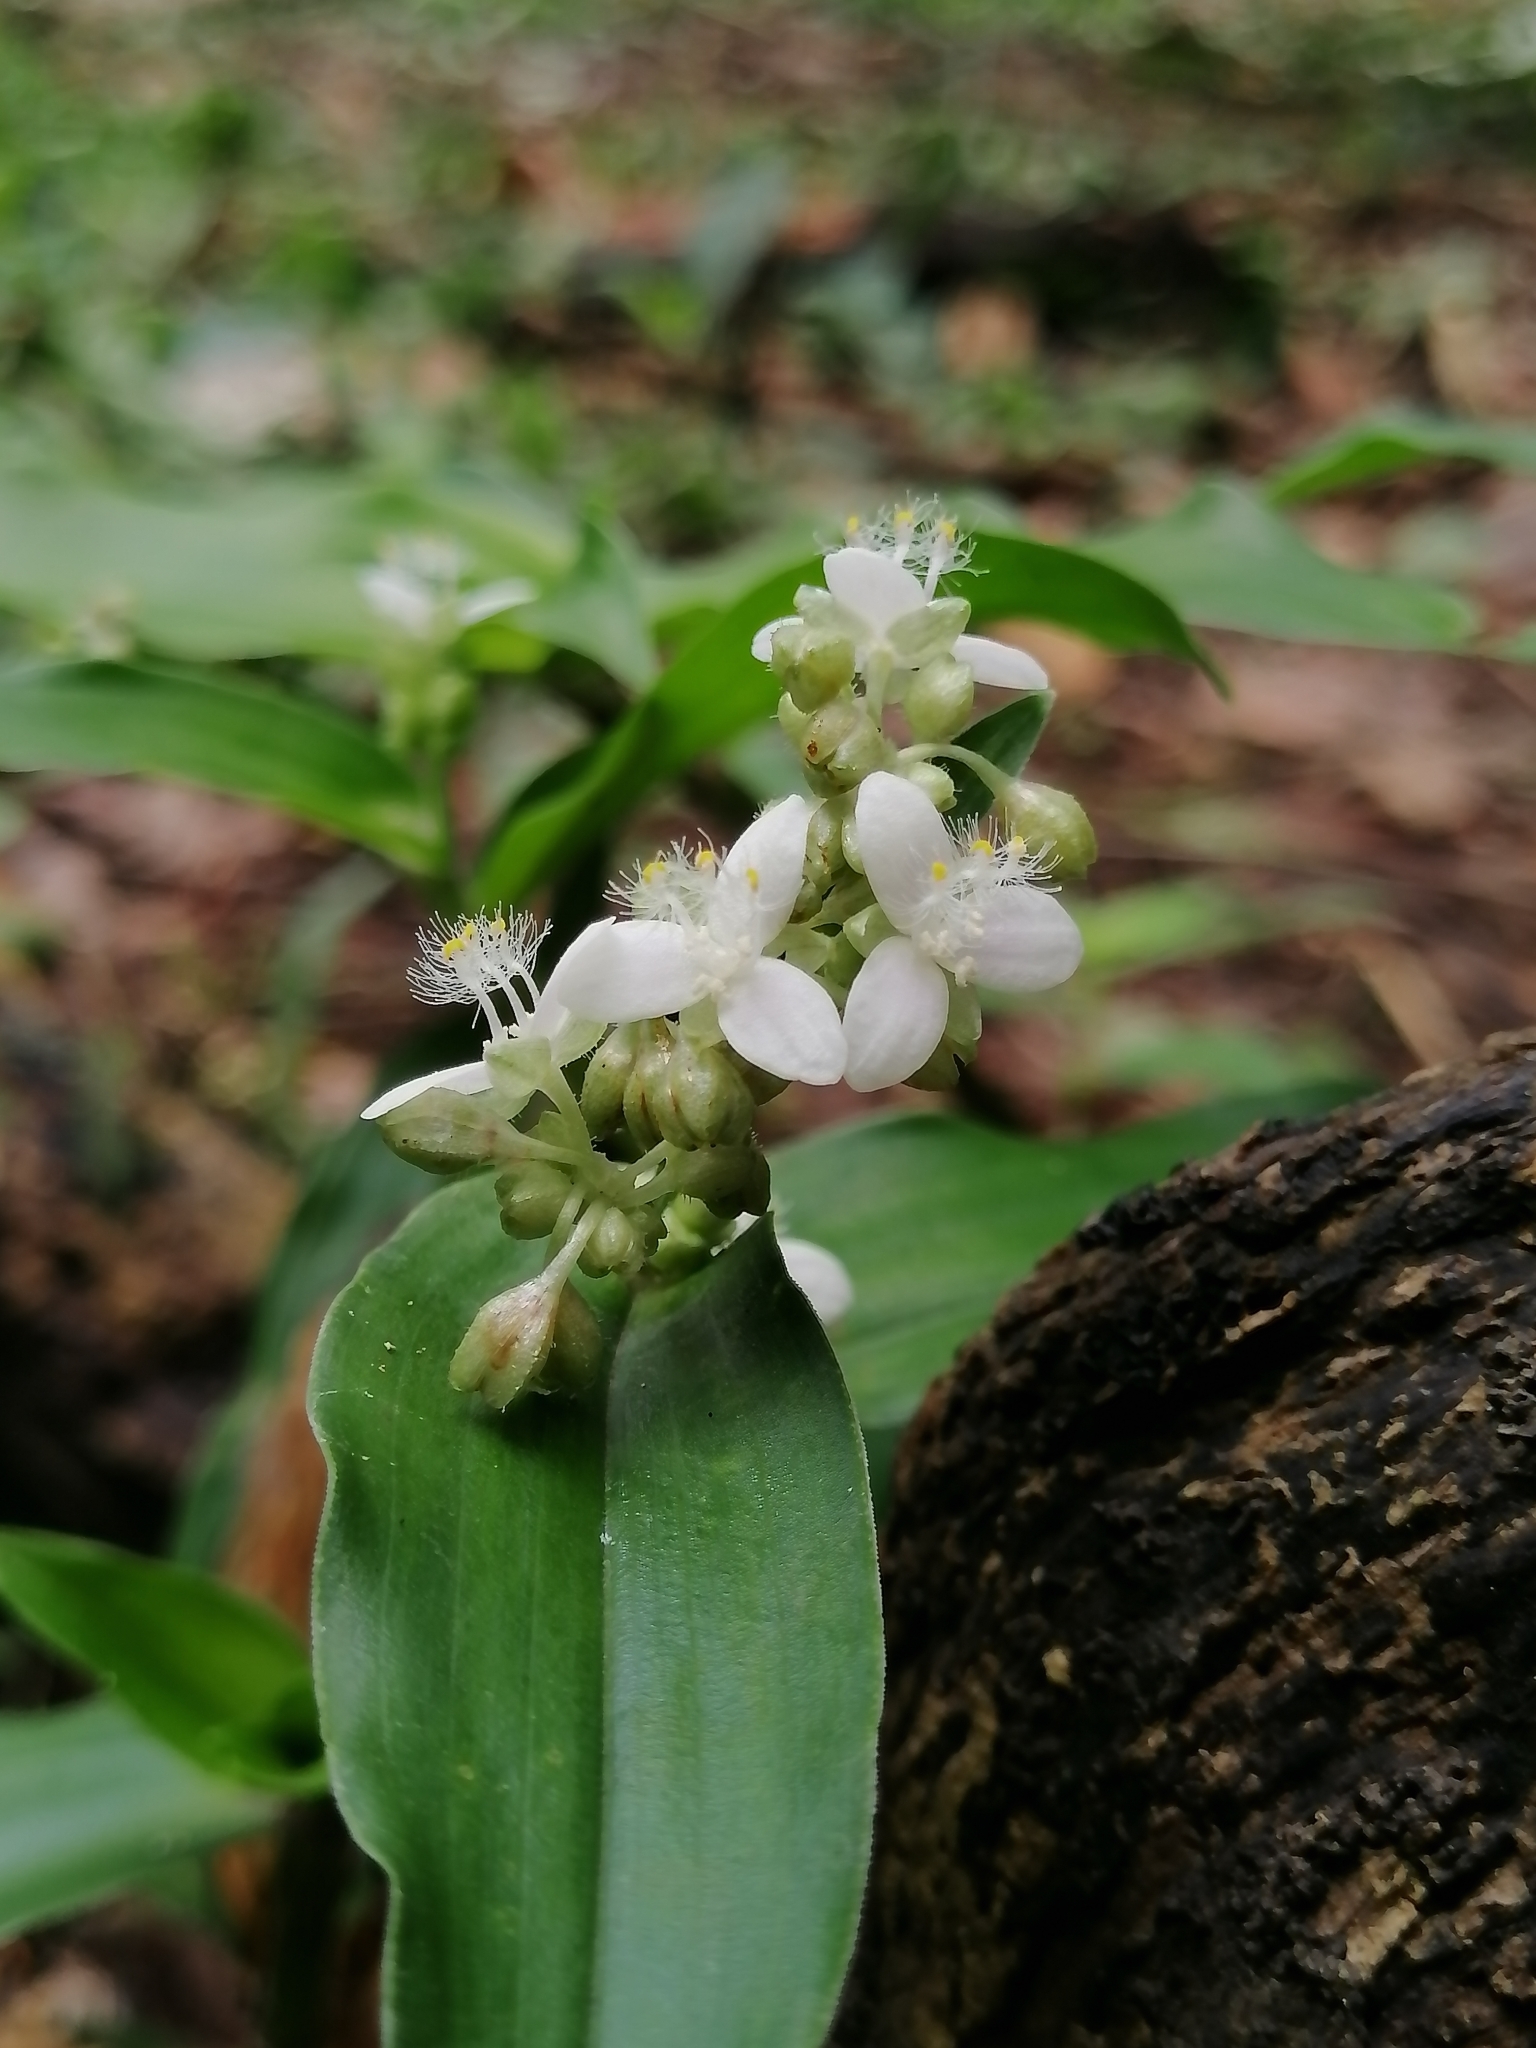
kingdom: Plantae
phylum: Tracheophyta
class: Liliopsida
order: Commelinales
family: Commelinaceae
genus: Callisia
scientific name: Callisia serrulata
